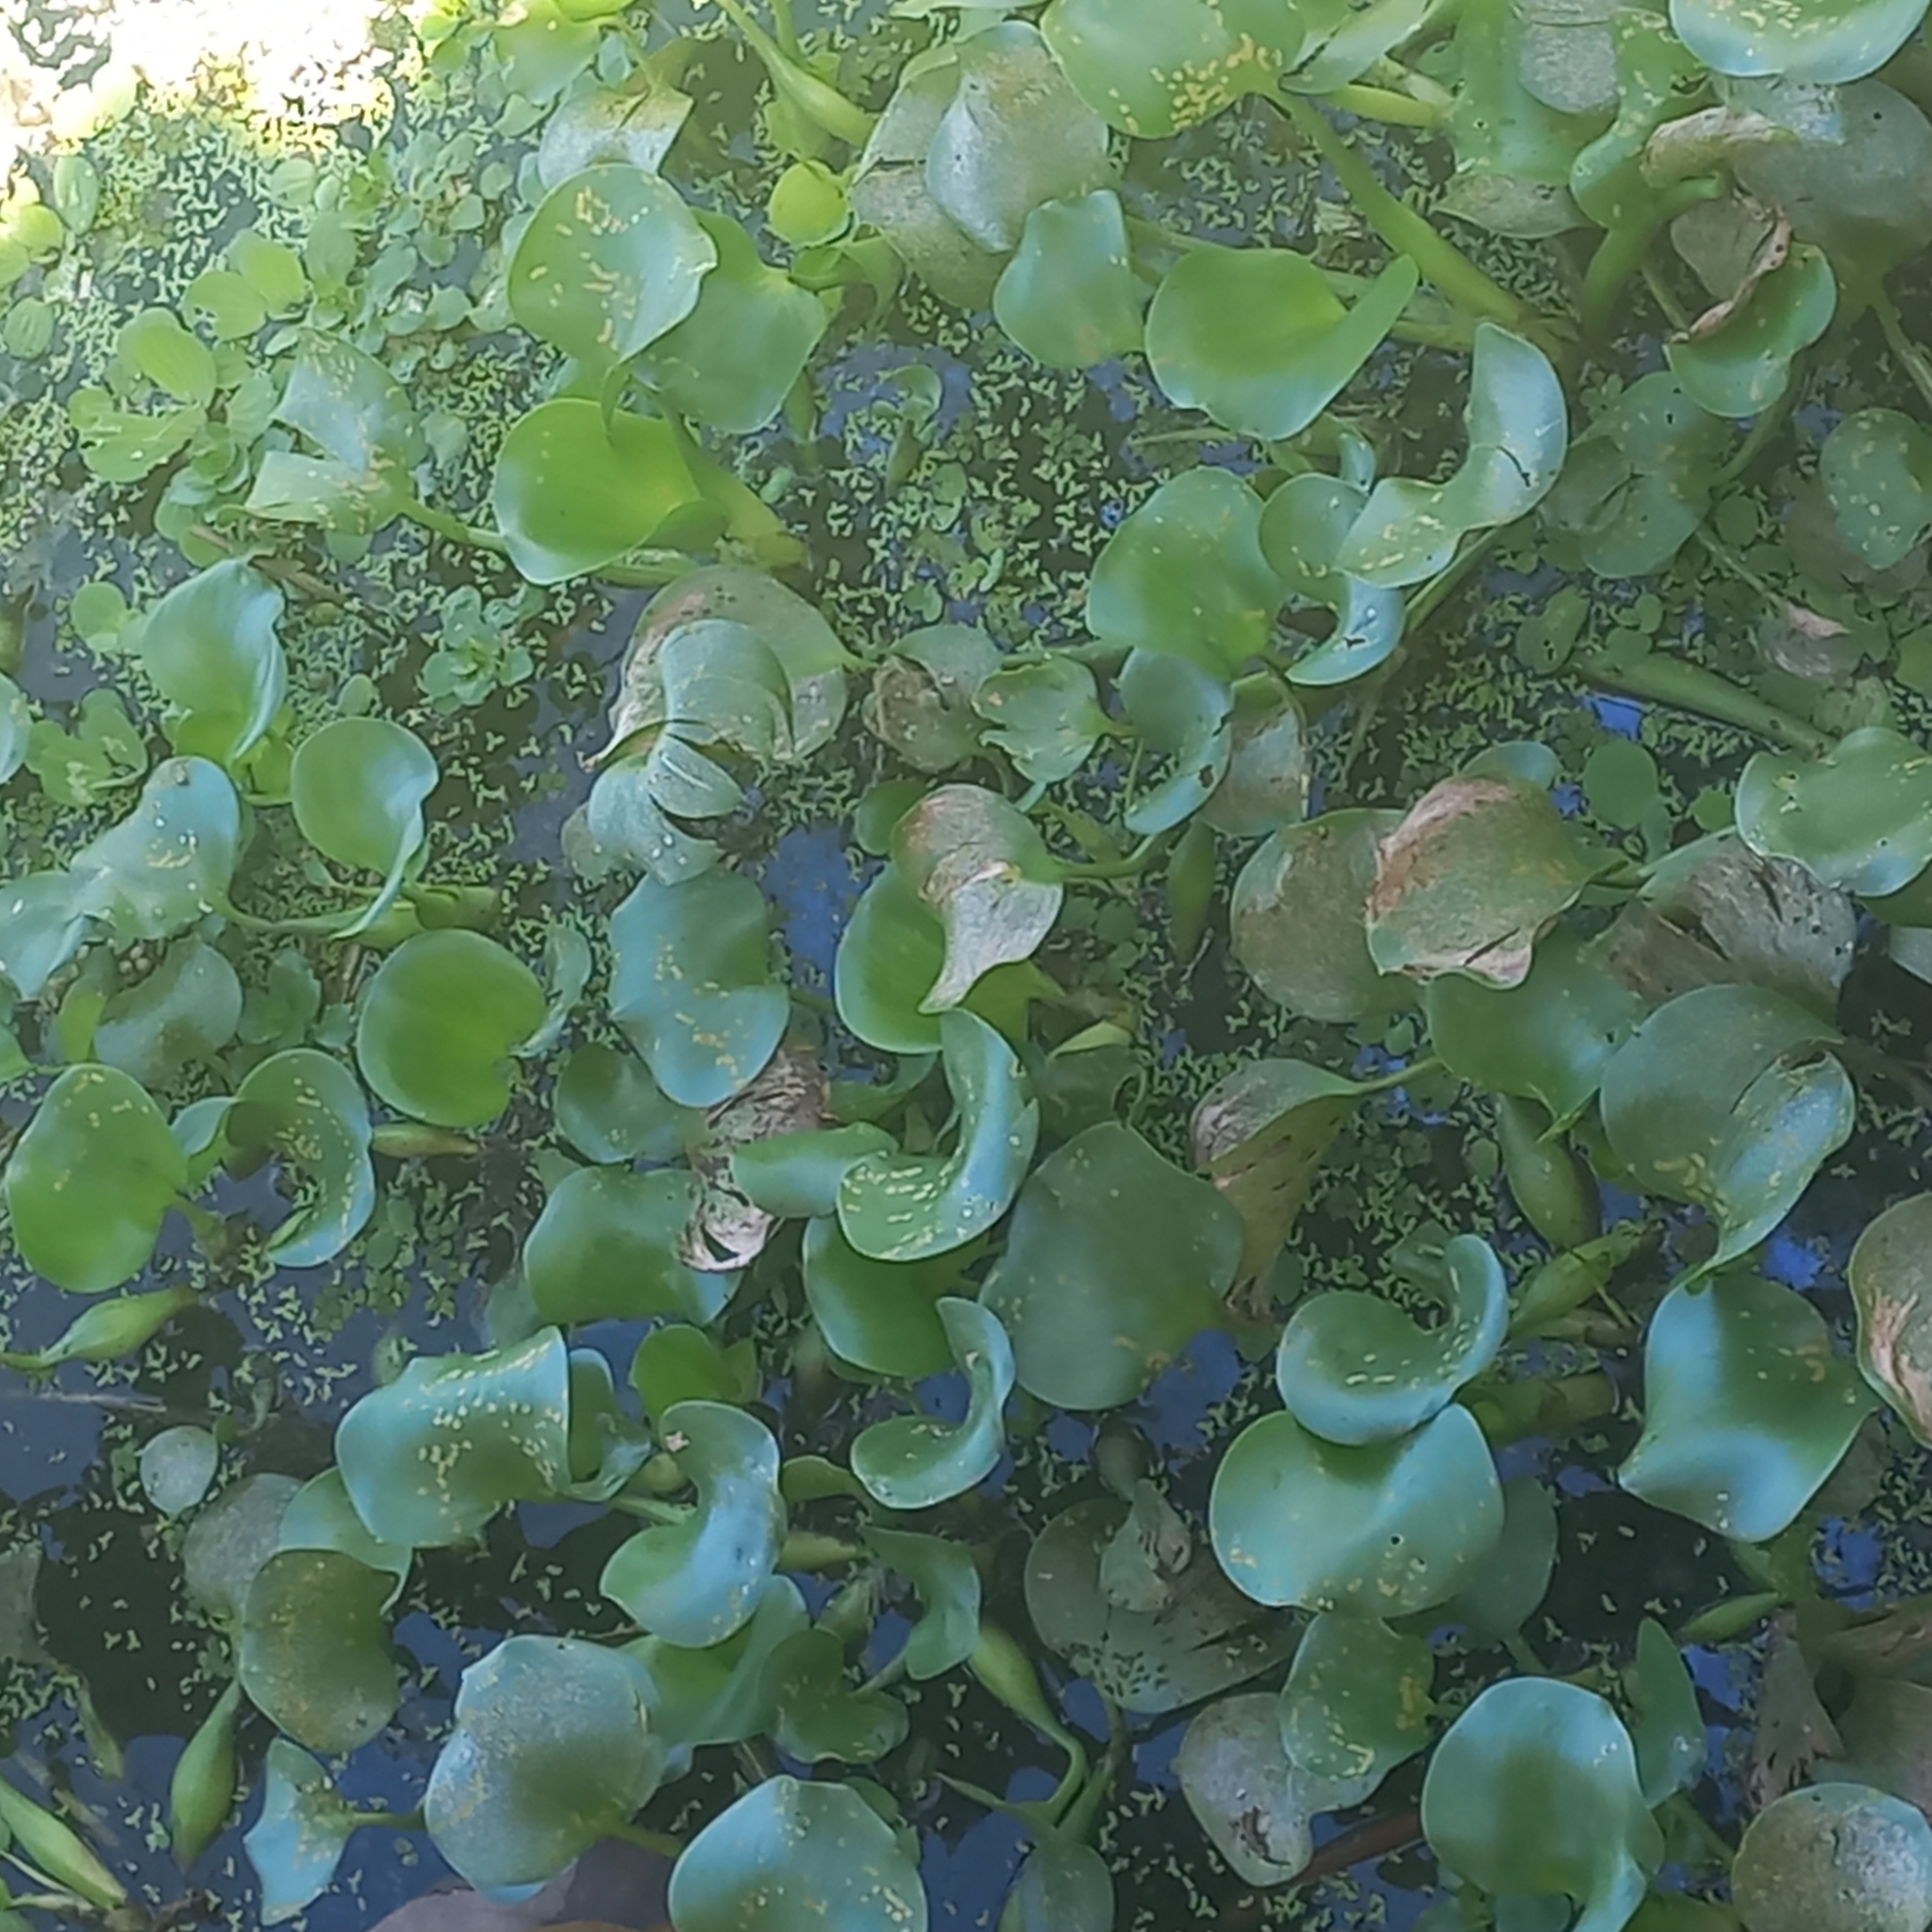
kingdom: Plantae
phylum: Tracheophyta
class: Liliopsida
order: Commelinales
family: Pontederiaceae
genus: Pontederia
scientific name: Pontederia crassipes
